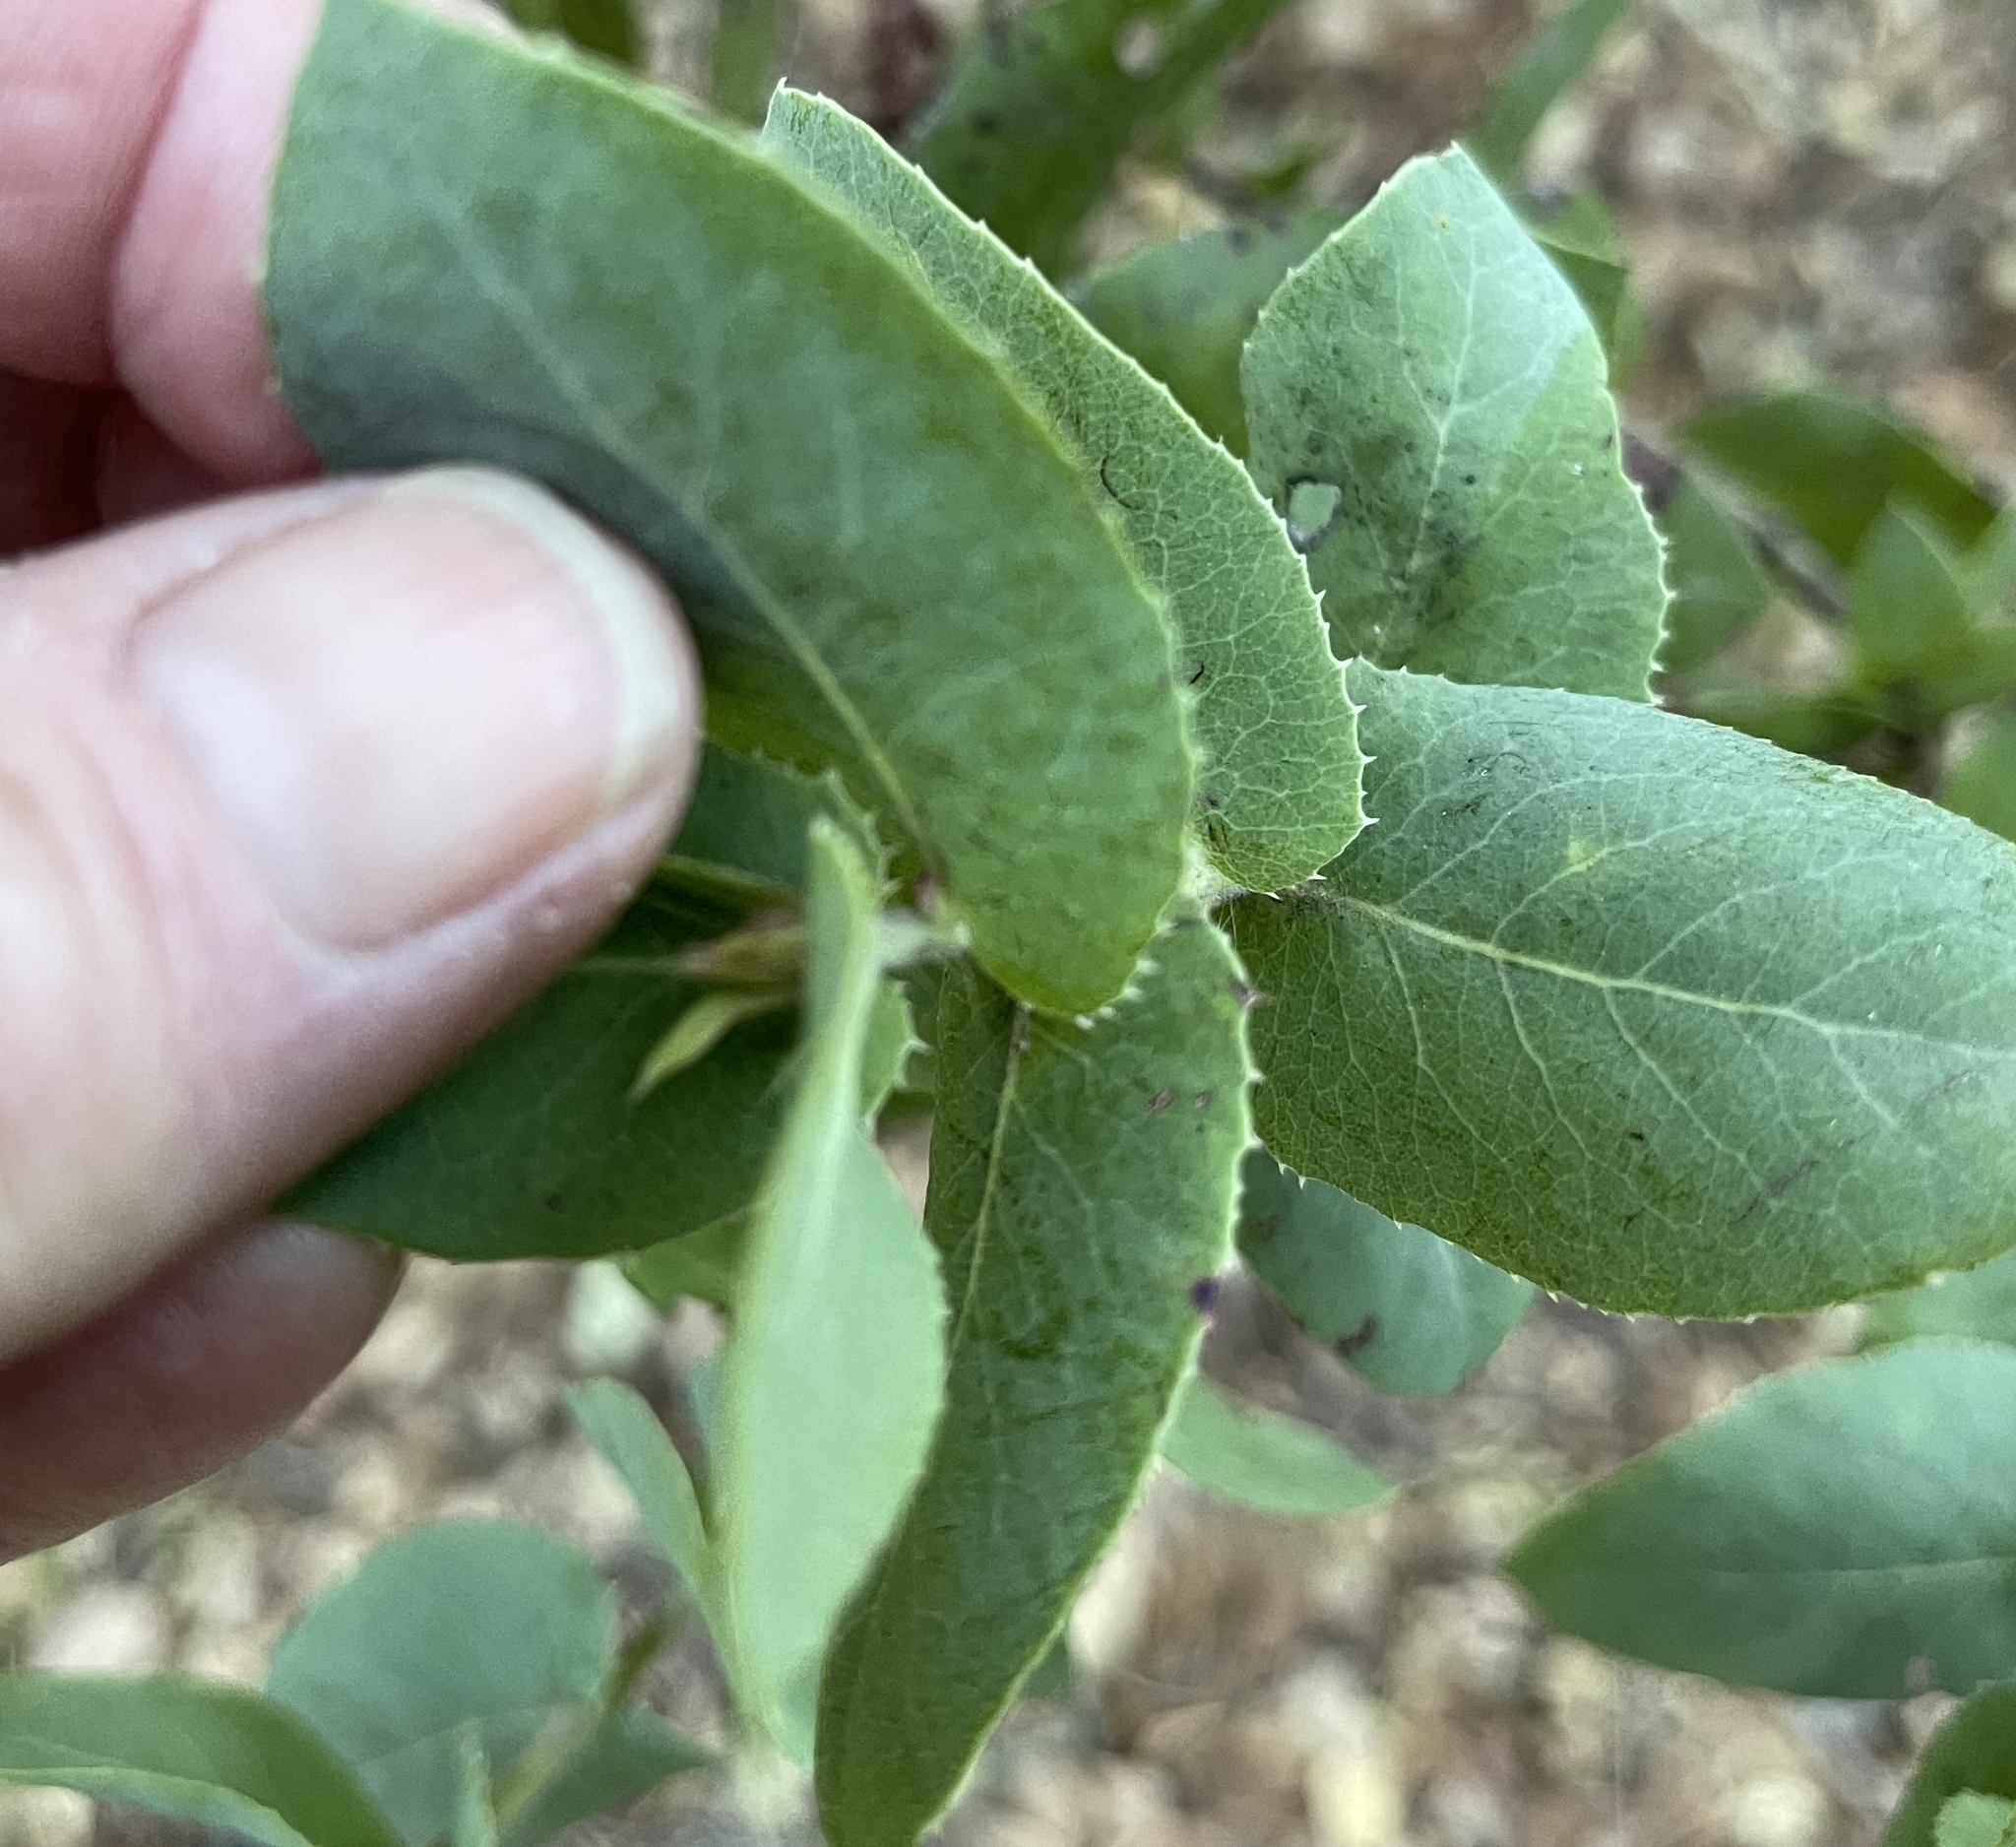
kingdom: Plantae
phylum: Tracheophyta
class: Magnoliopsida
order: Ericales
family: Ericaceae
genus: Arctostaphylos
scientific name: Arctostaphylos pallida
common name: Pallid manzanita
